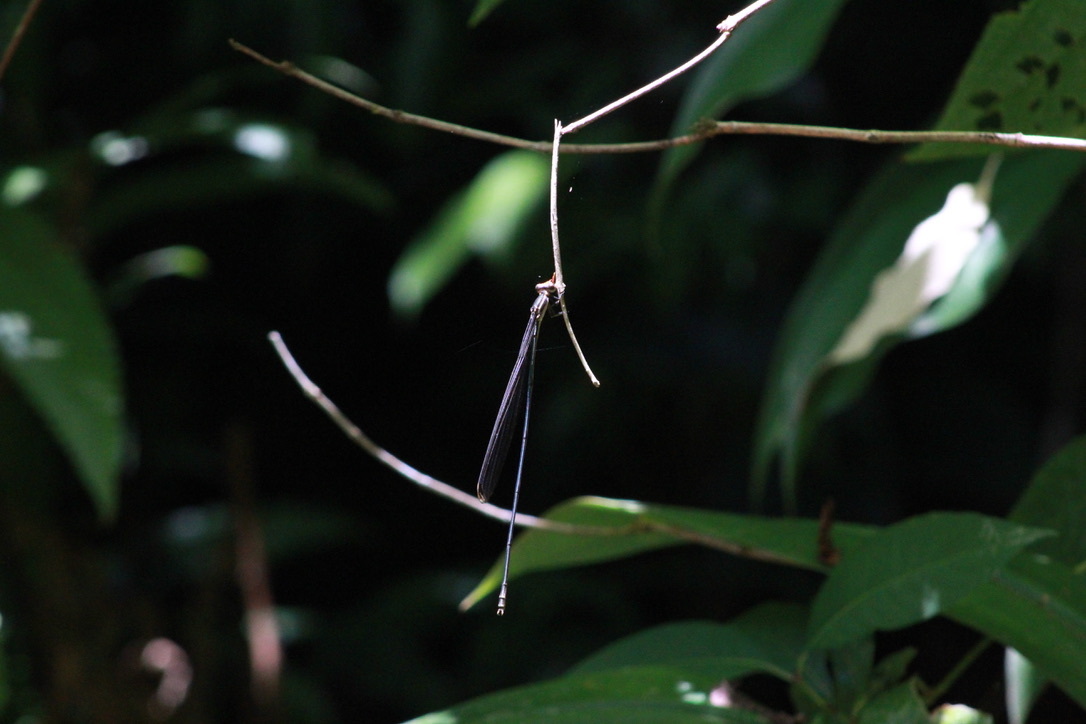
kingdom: Animalia
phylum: Arthropoda
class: Insecta
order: Odonata
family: Coenagrionidae
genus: Mecistogaster
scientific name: Mecistogaster ornata
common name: Ornate helicopter
